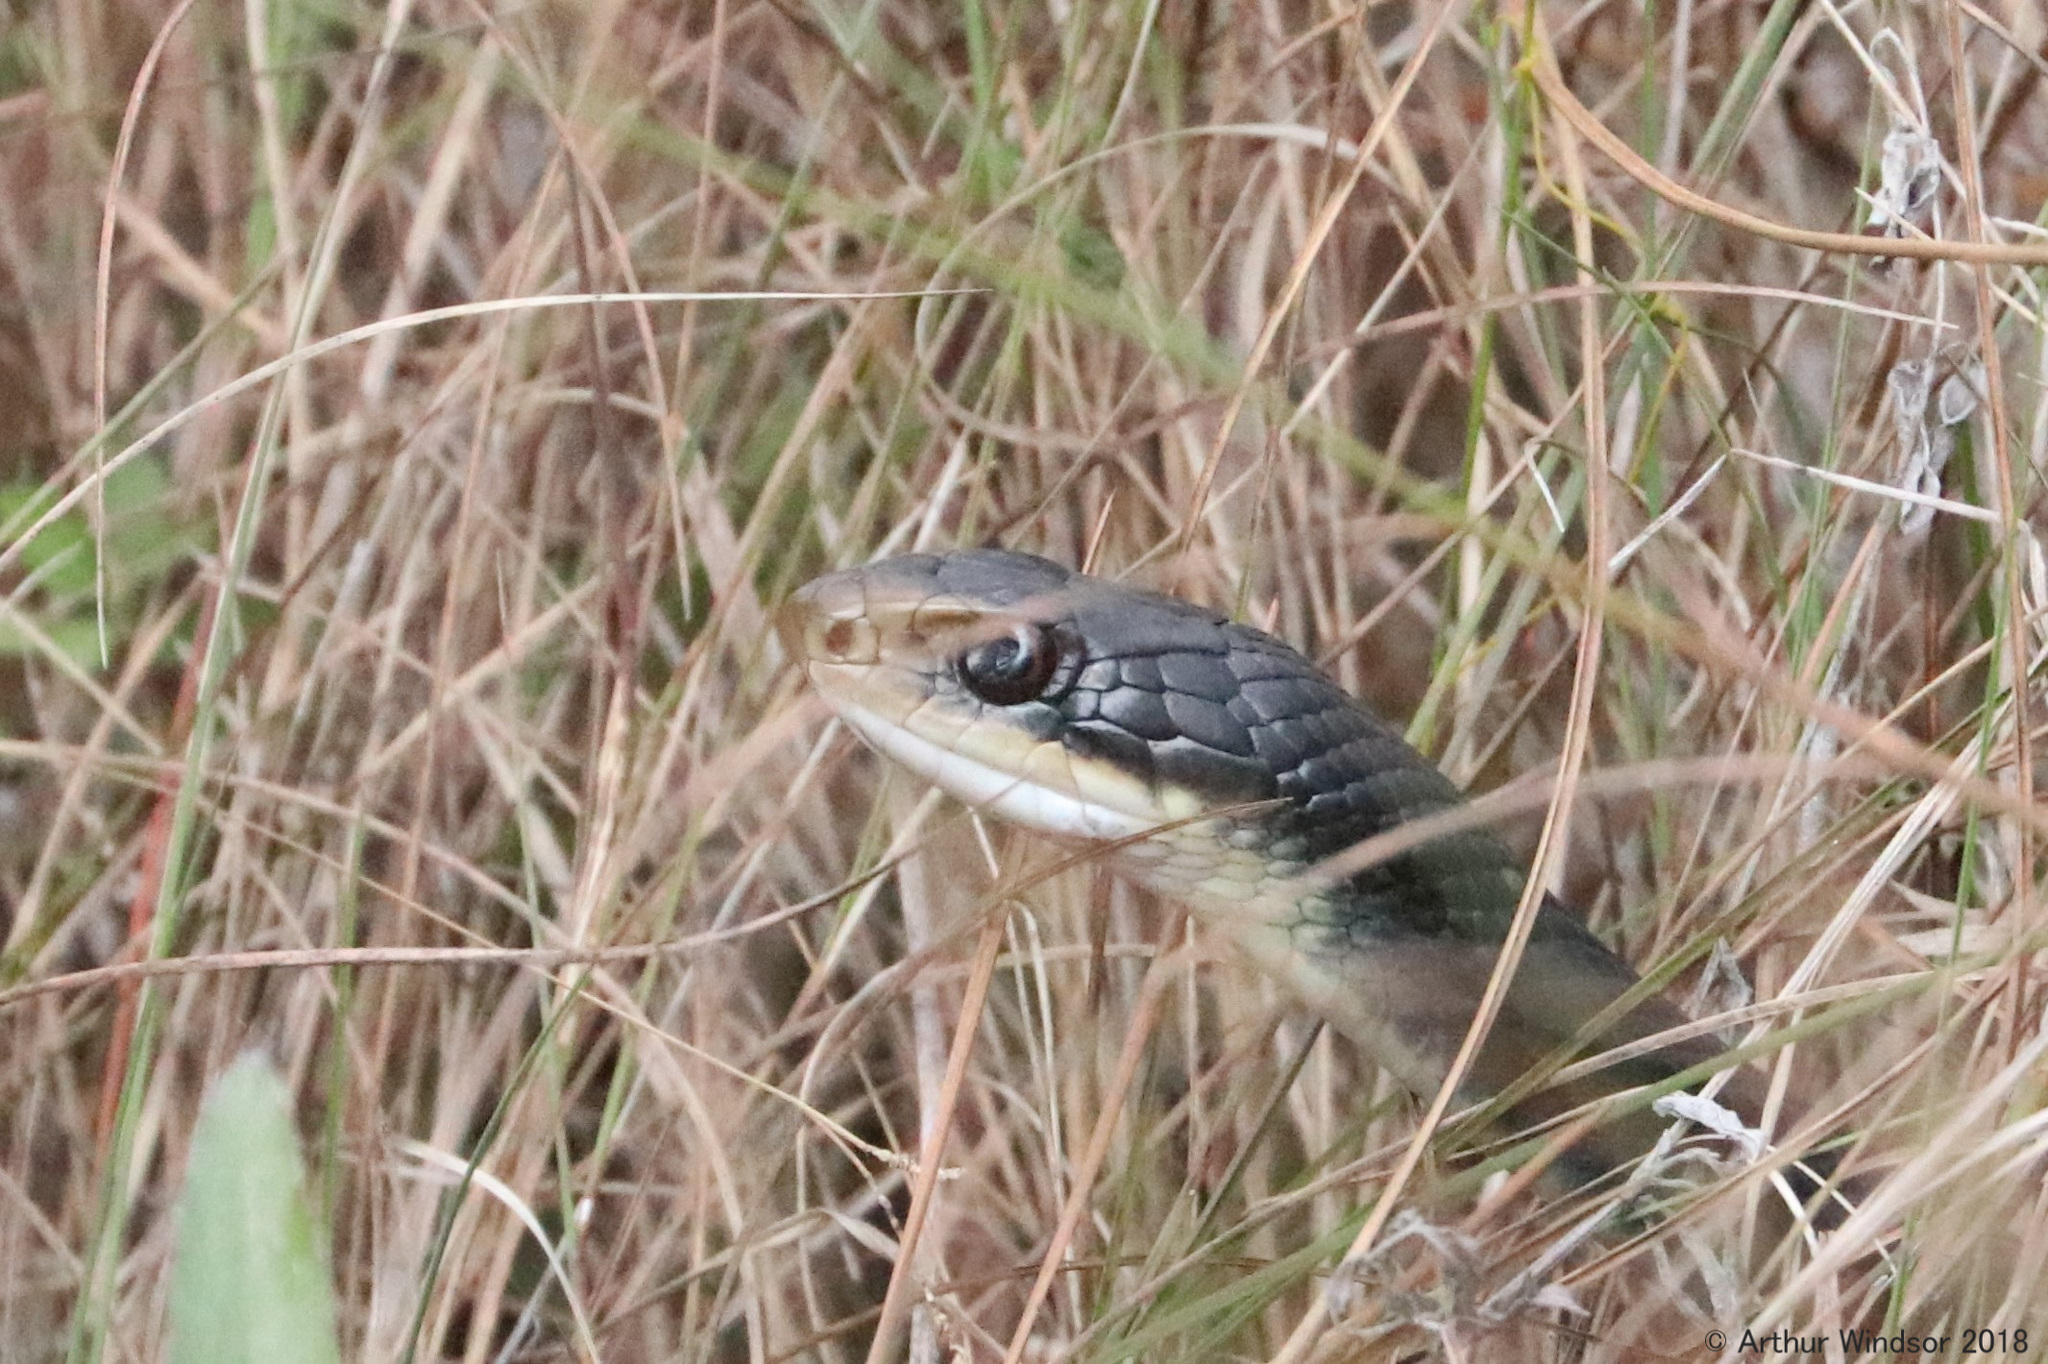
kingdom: Animalia
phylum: Chordata
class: Squamata
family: Colubridae
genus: Coluber
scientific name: Coluber constrictor
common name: Eastern racer
